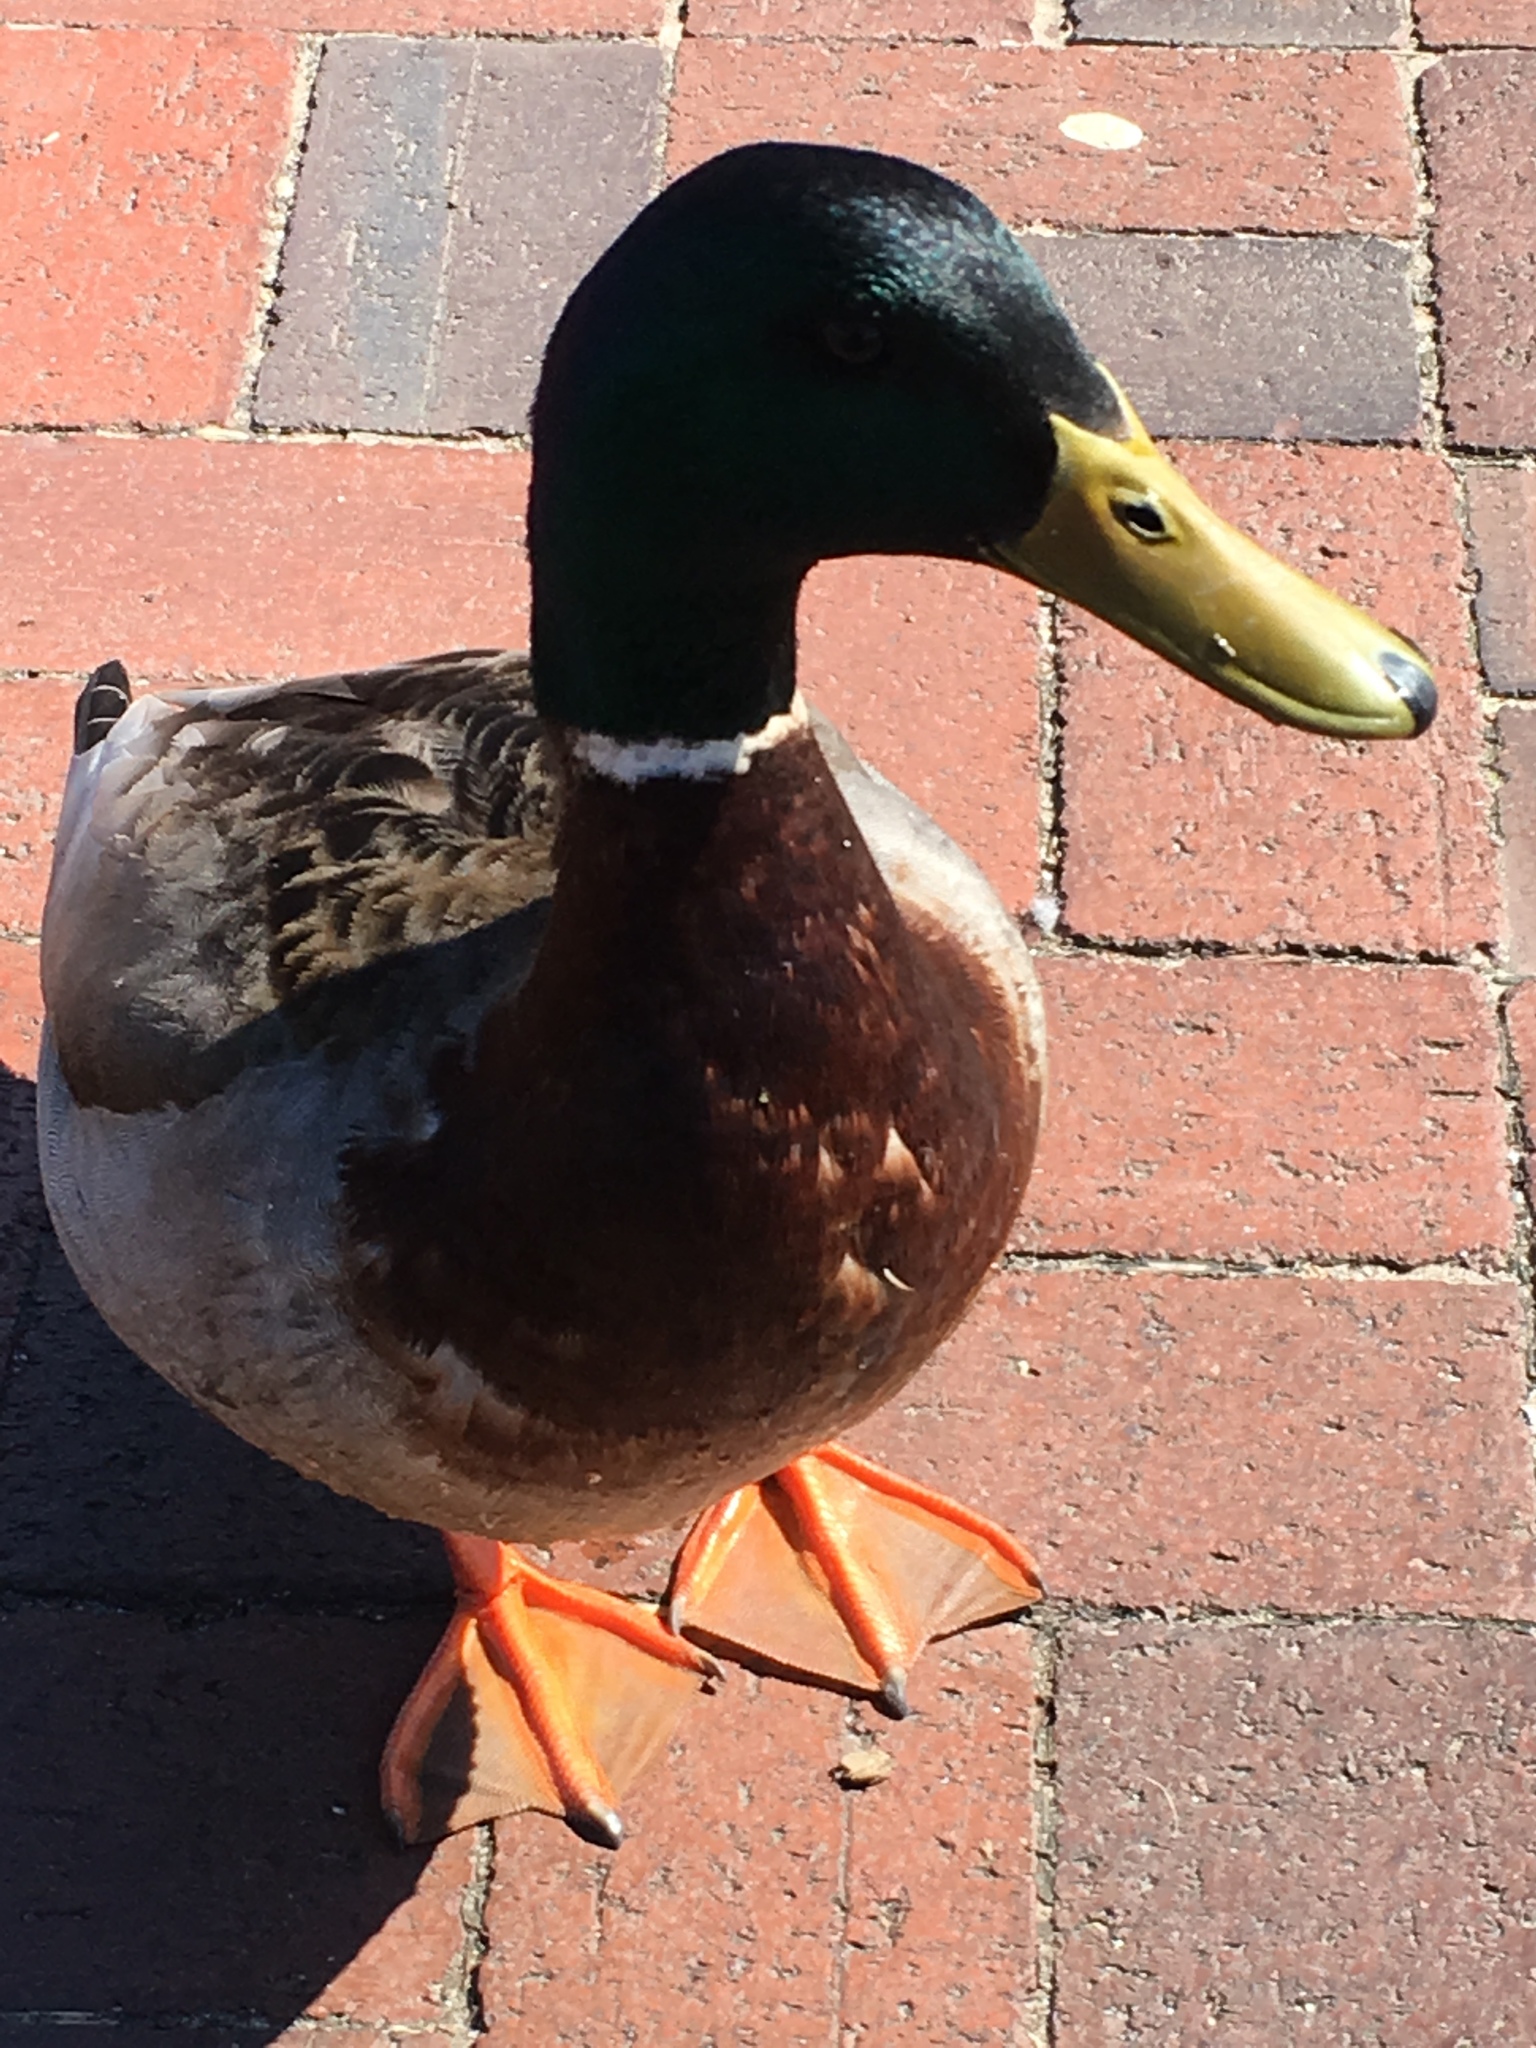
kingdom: Animalia
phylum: Chordata
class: Aves
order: Anseriformes
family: Anatidae
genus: Anas
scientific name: Anas platyrhynchos
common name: Mallard
